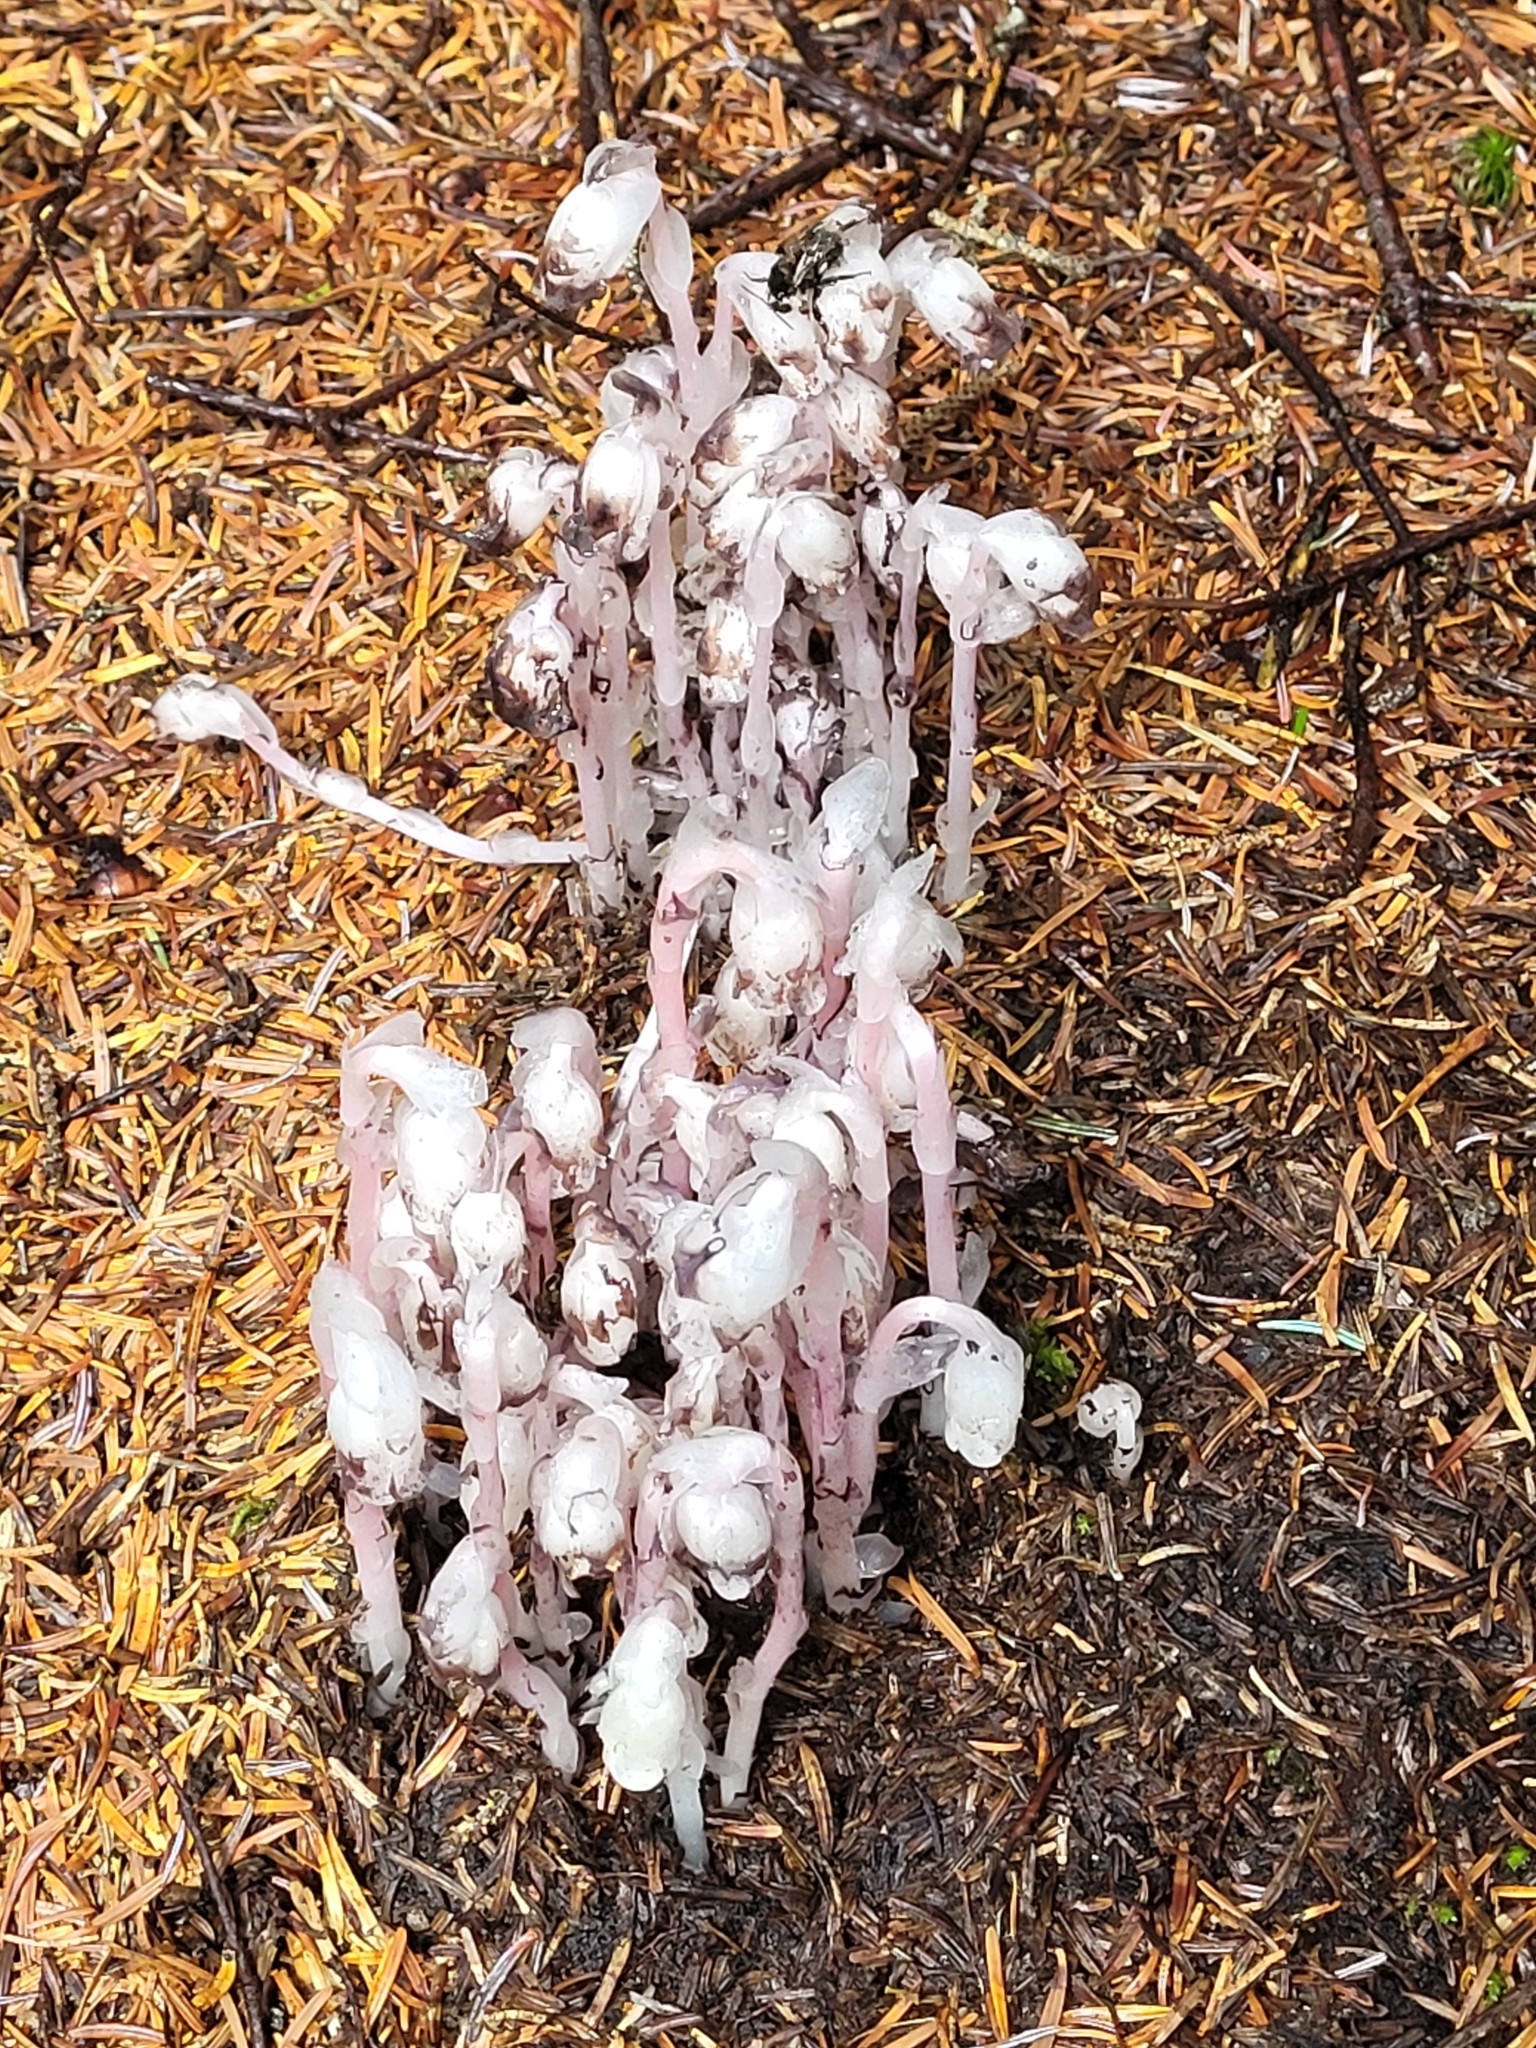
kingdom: Plantae
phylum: Tracheophyta
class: Magnoliopsida
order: Ericales
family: Ericaceae
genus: Monotropa
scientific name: Monotropa uniflora
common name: Convulsion root
